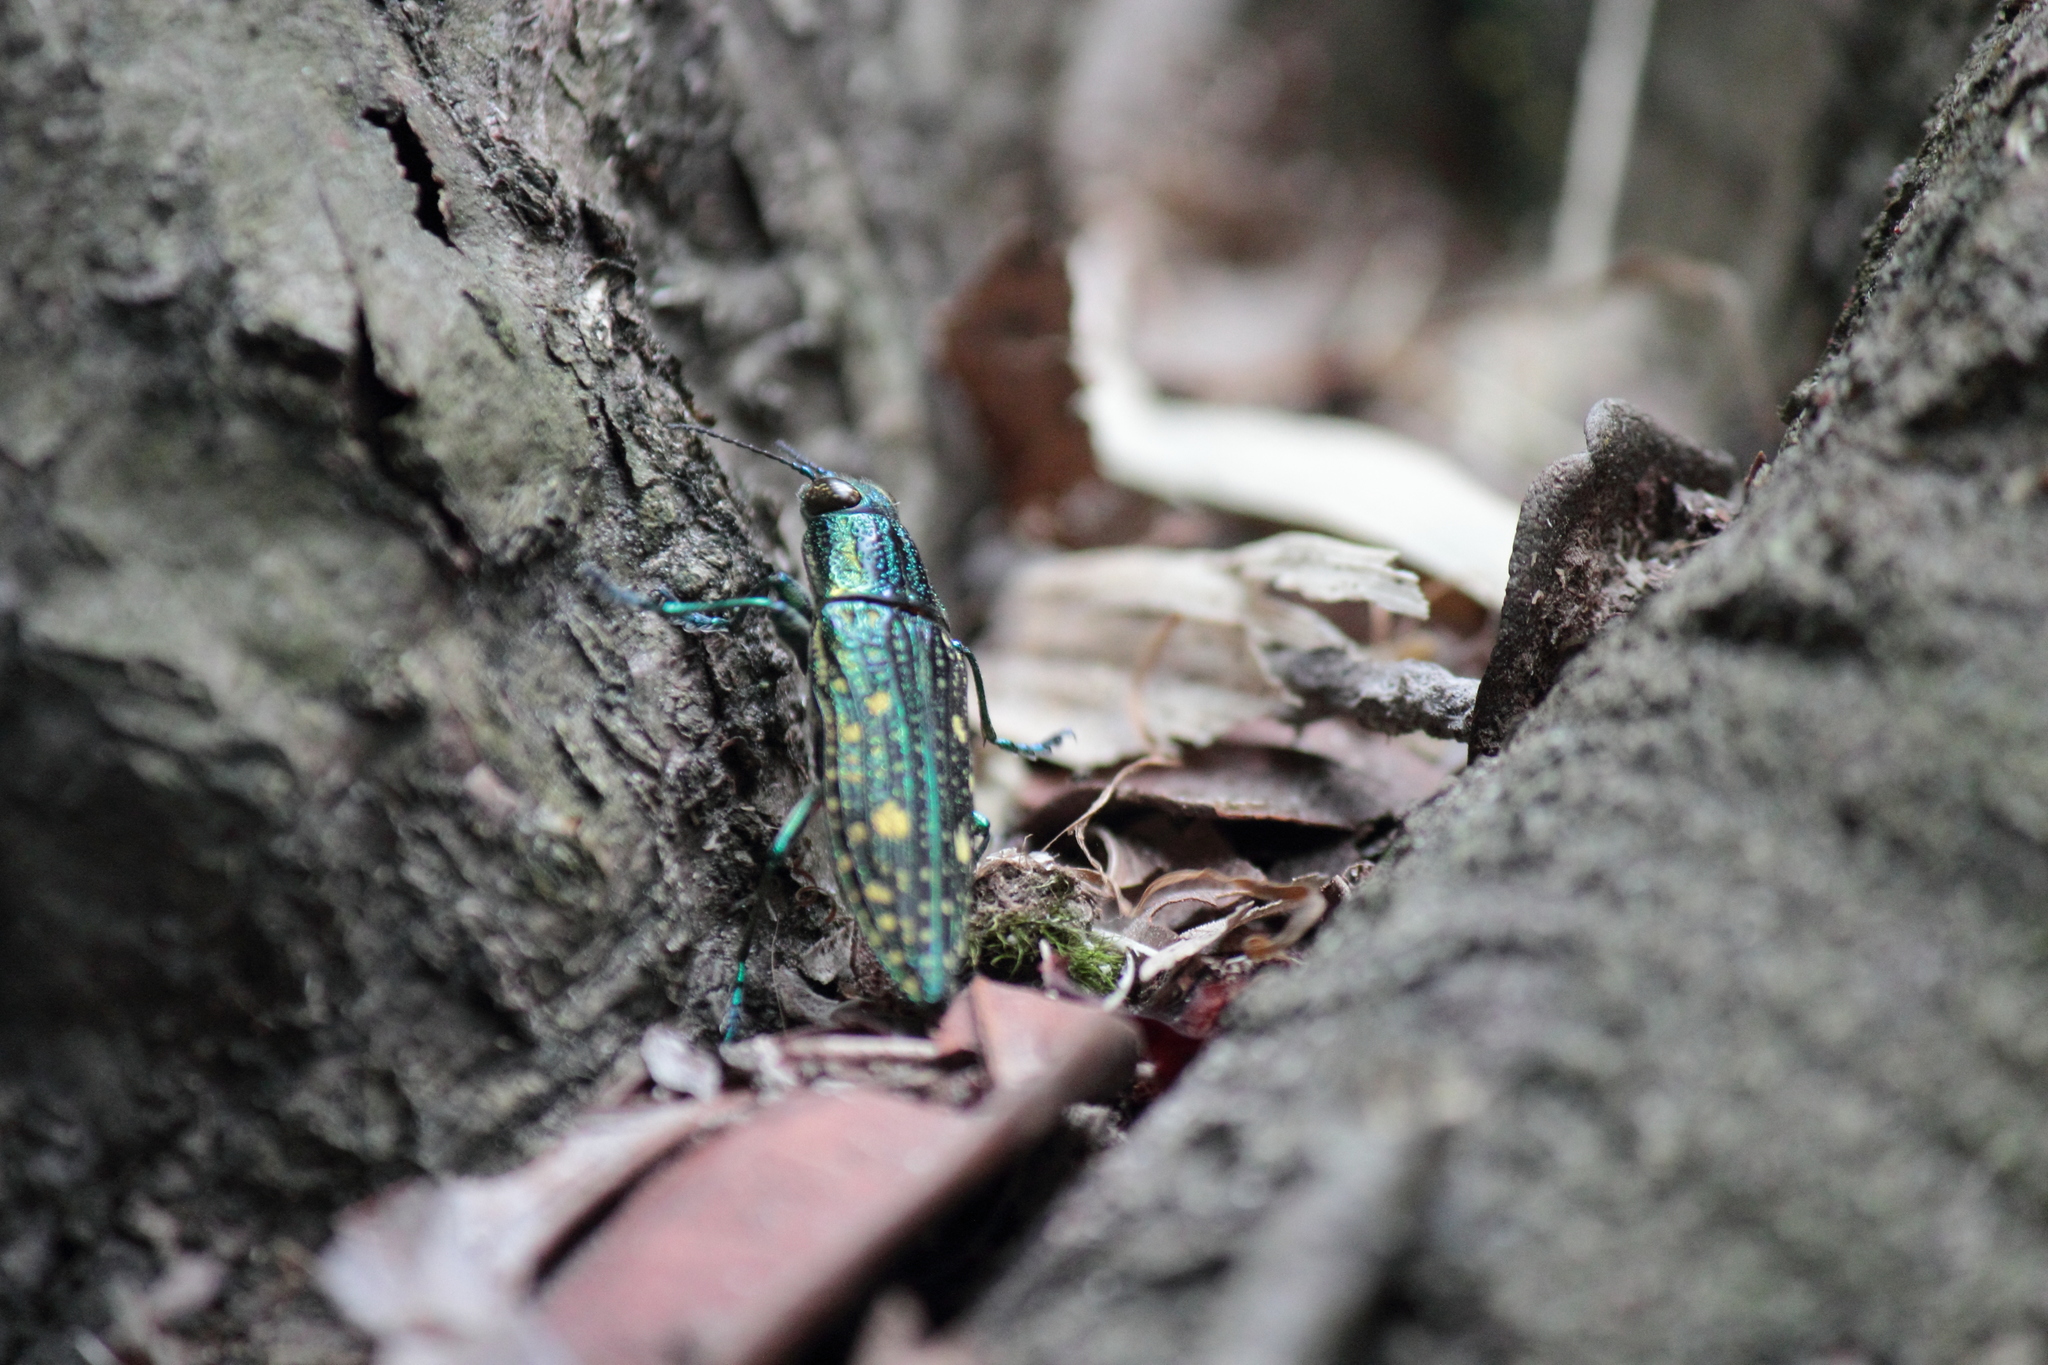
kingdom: Animalia
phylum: Arthropoda
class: Insecta
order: Coleoptera
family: Buprestidae
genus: Nipponobuprestis
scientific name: Nipponobuprestis amabilis
